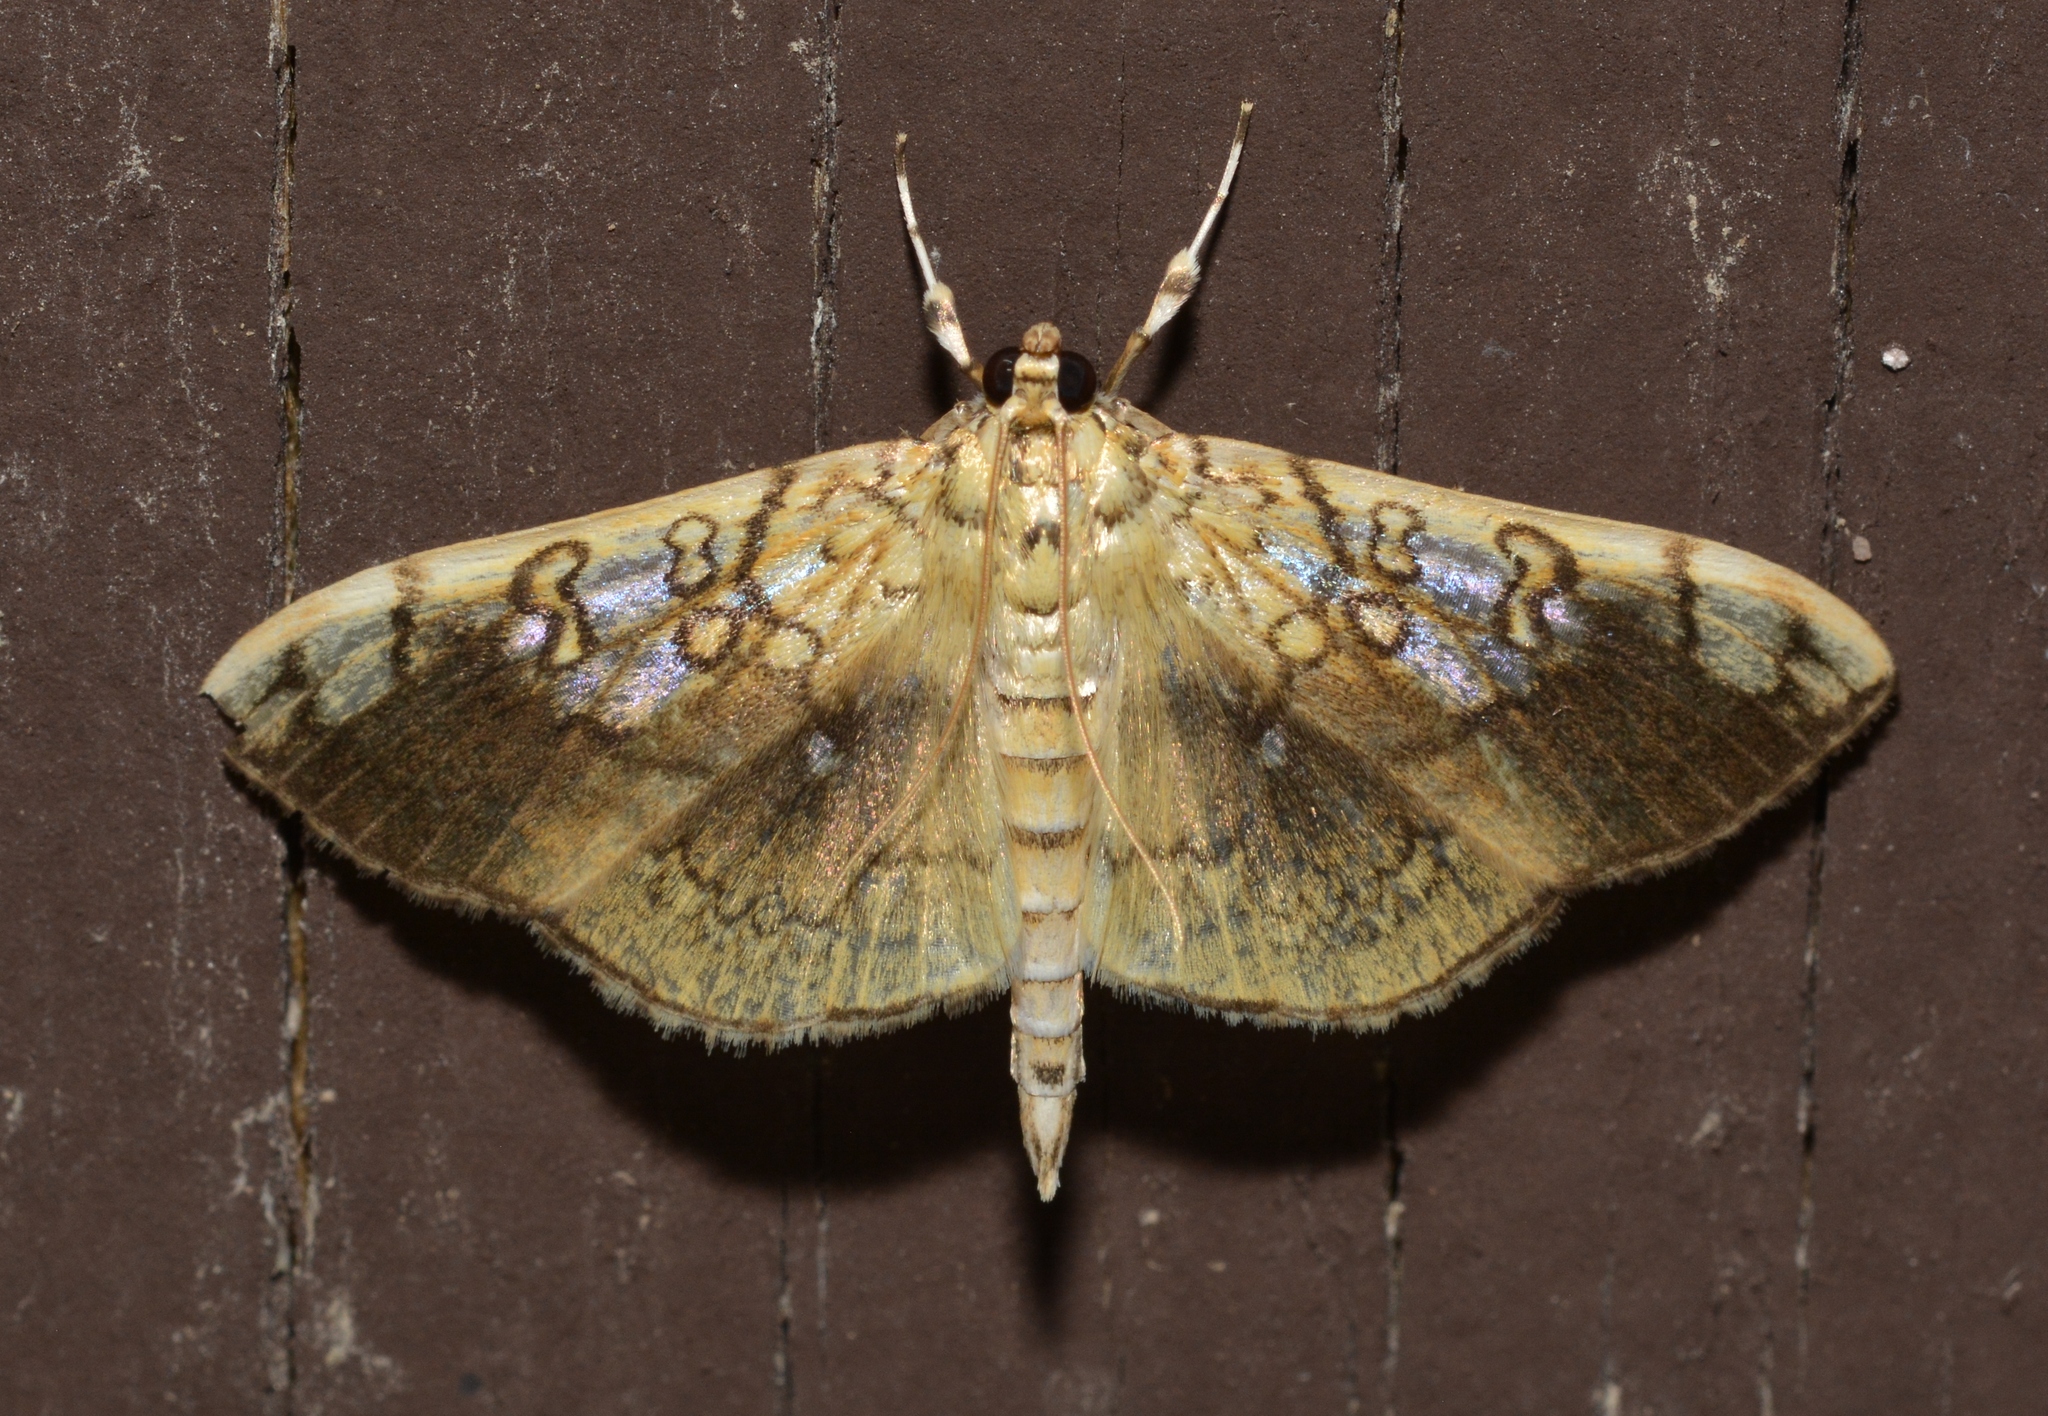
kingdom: Animalia
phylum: Arthropoda
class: Insecta
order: Lepidoptera
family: Crambidae
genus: Pantographa
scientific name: Pantographa limata
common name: Basswood leafroller moth
